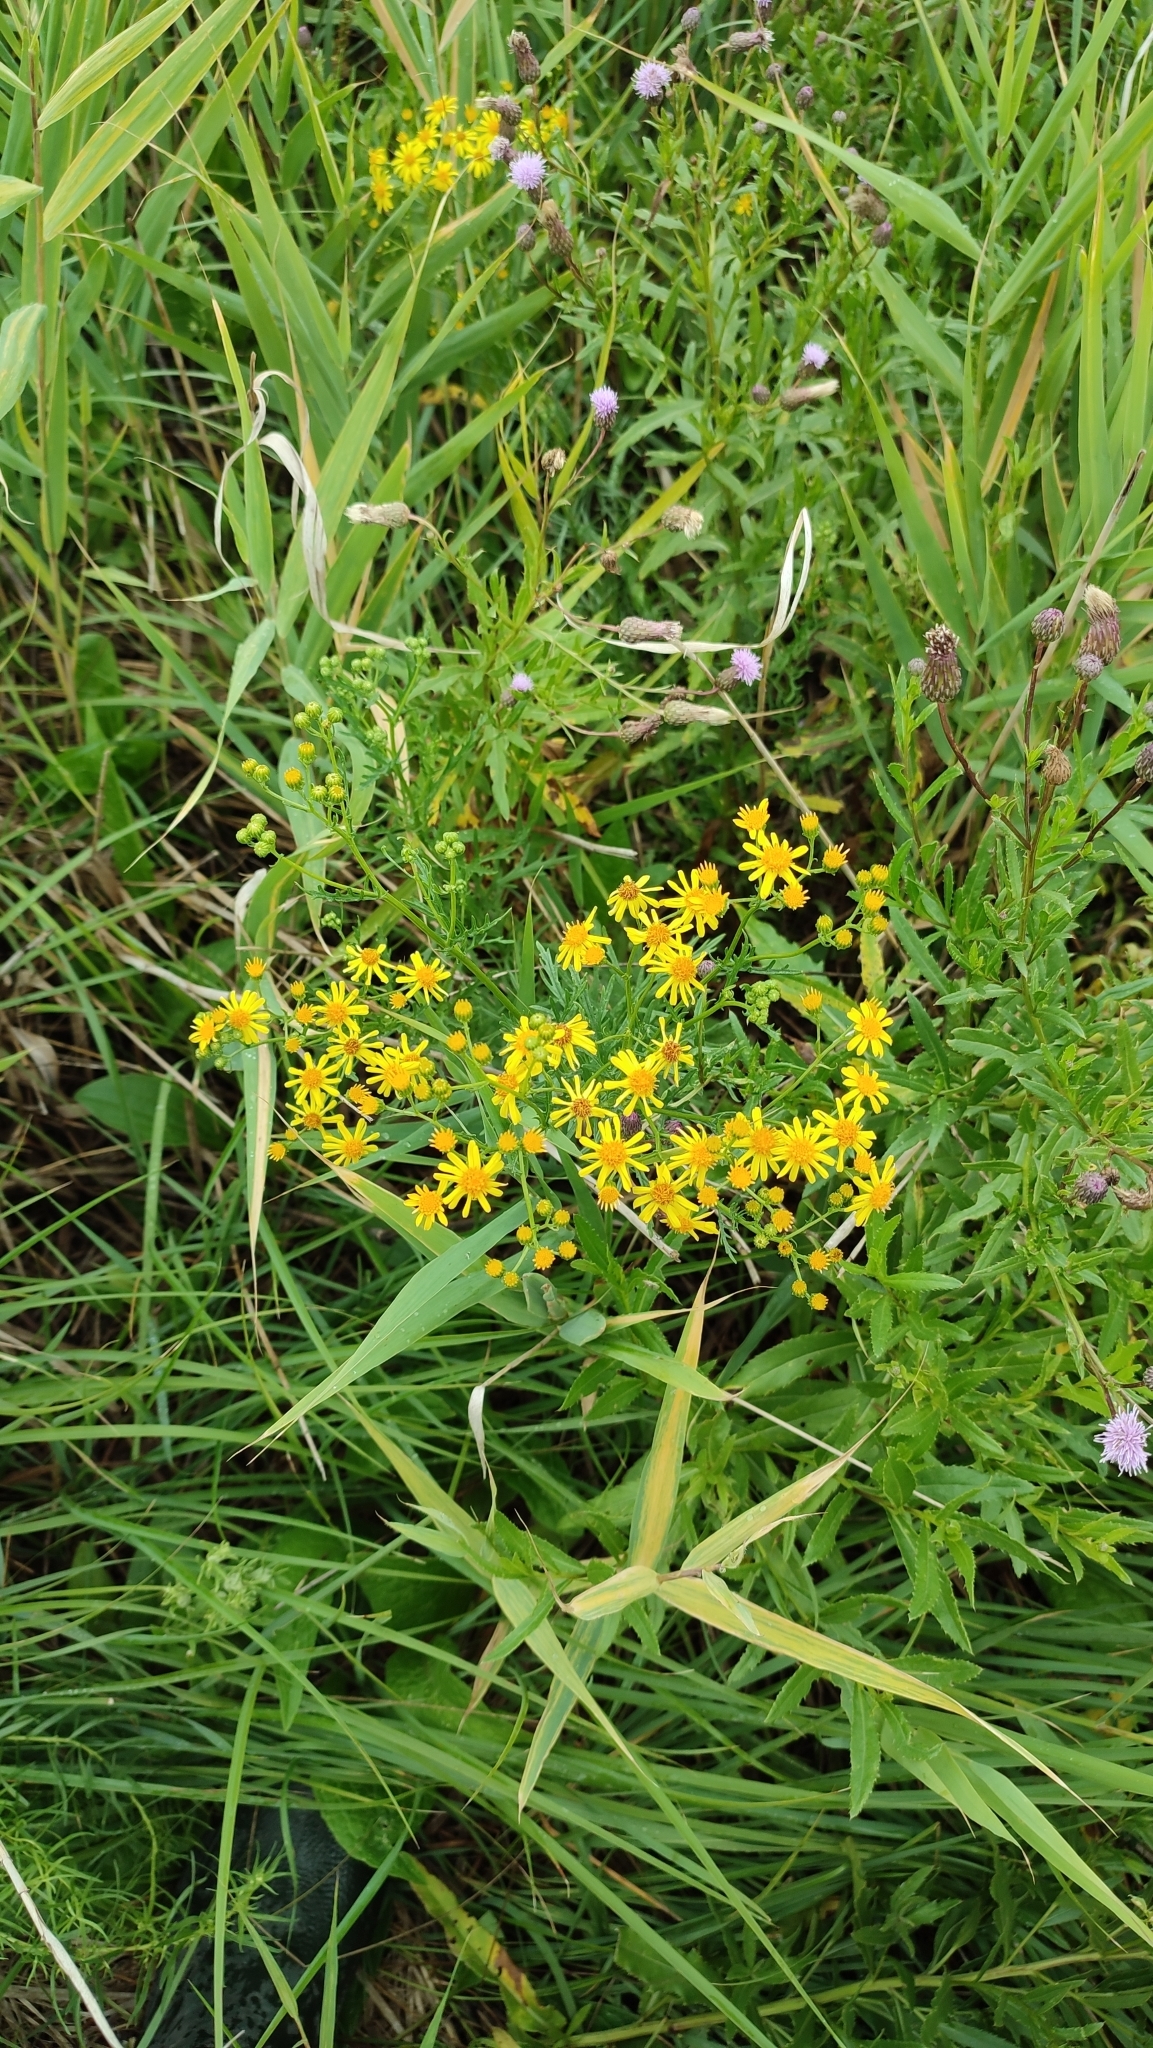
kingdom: Plantae
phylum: Tracheophyta
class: Magnoliopsida
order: Asterales
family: Asteraceae
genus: Jacobaea
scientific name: Jacobaea erucifolia
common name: Hoary ragwort
